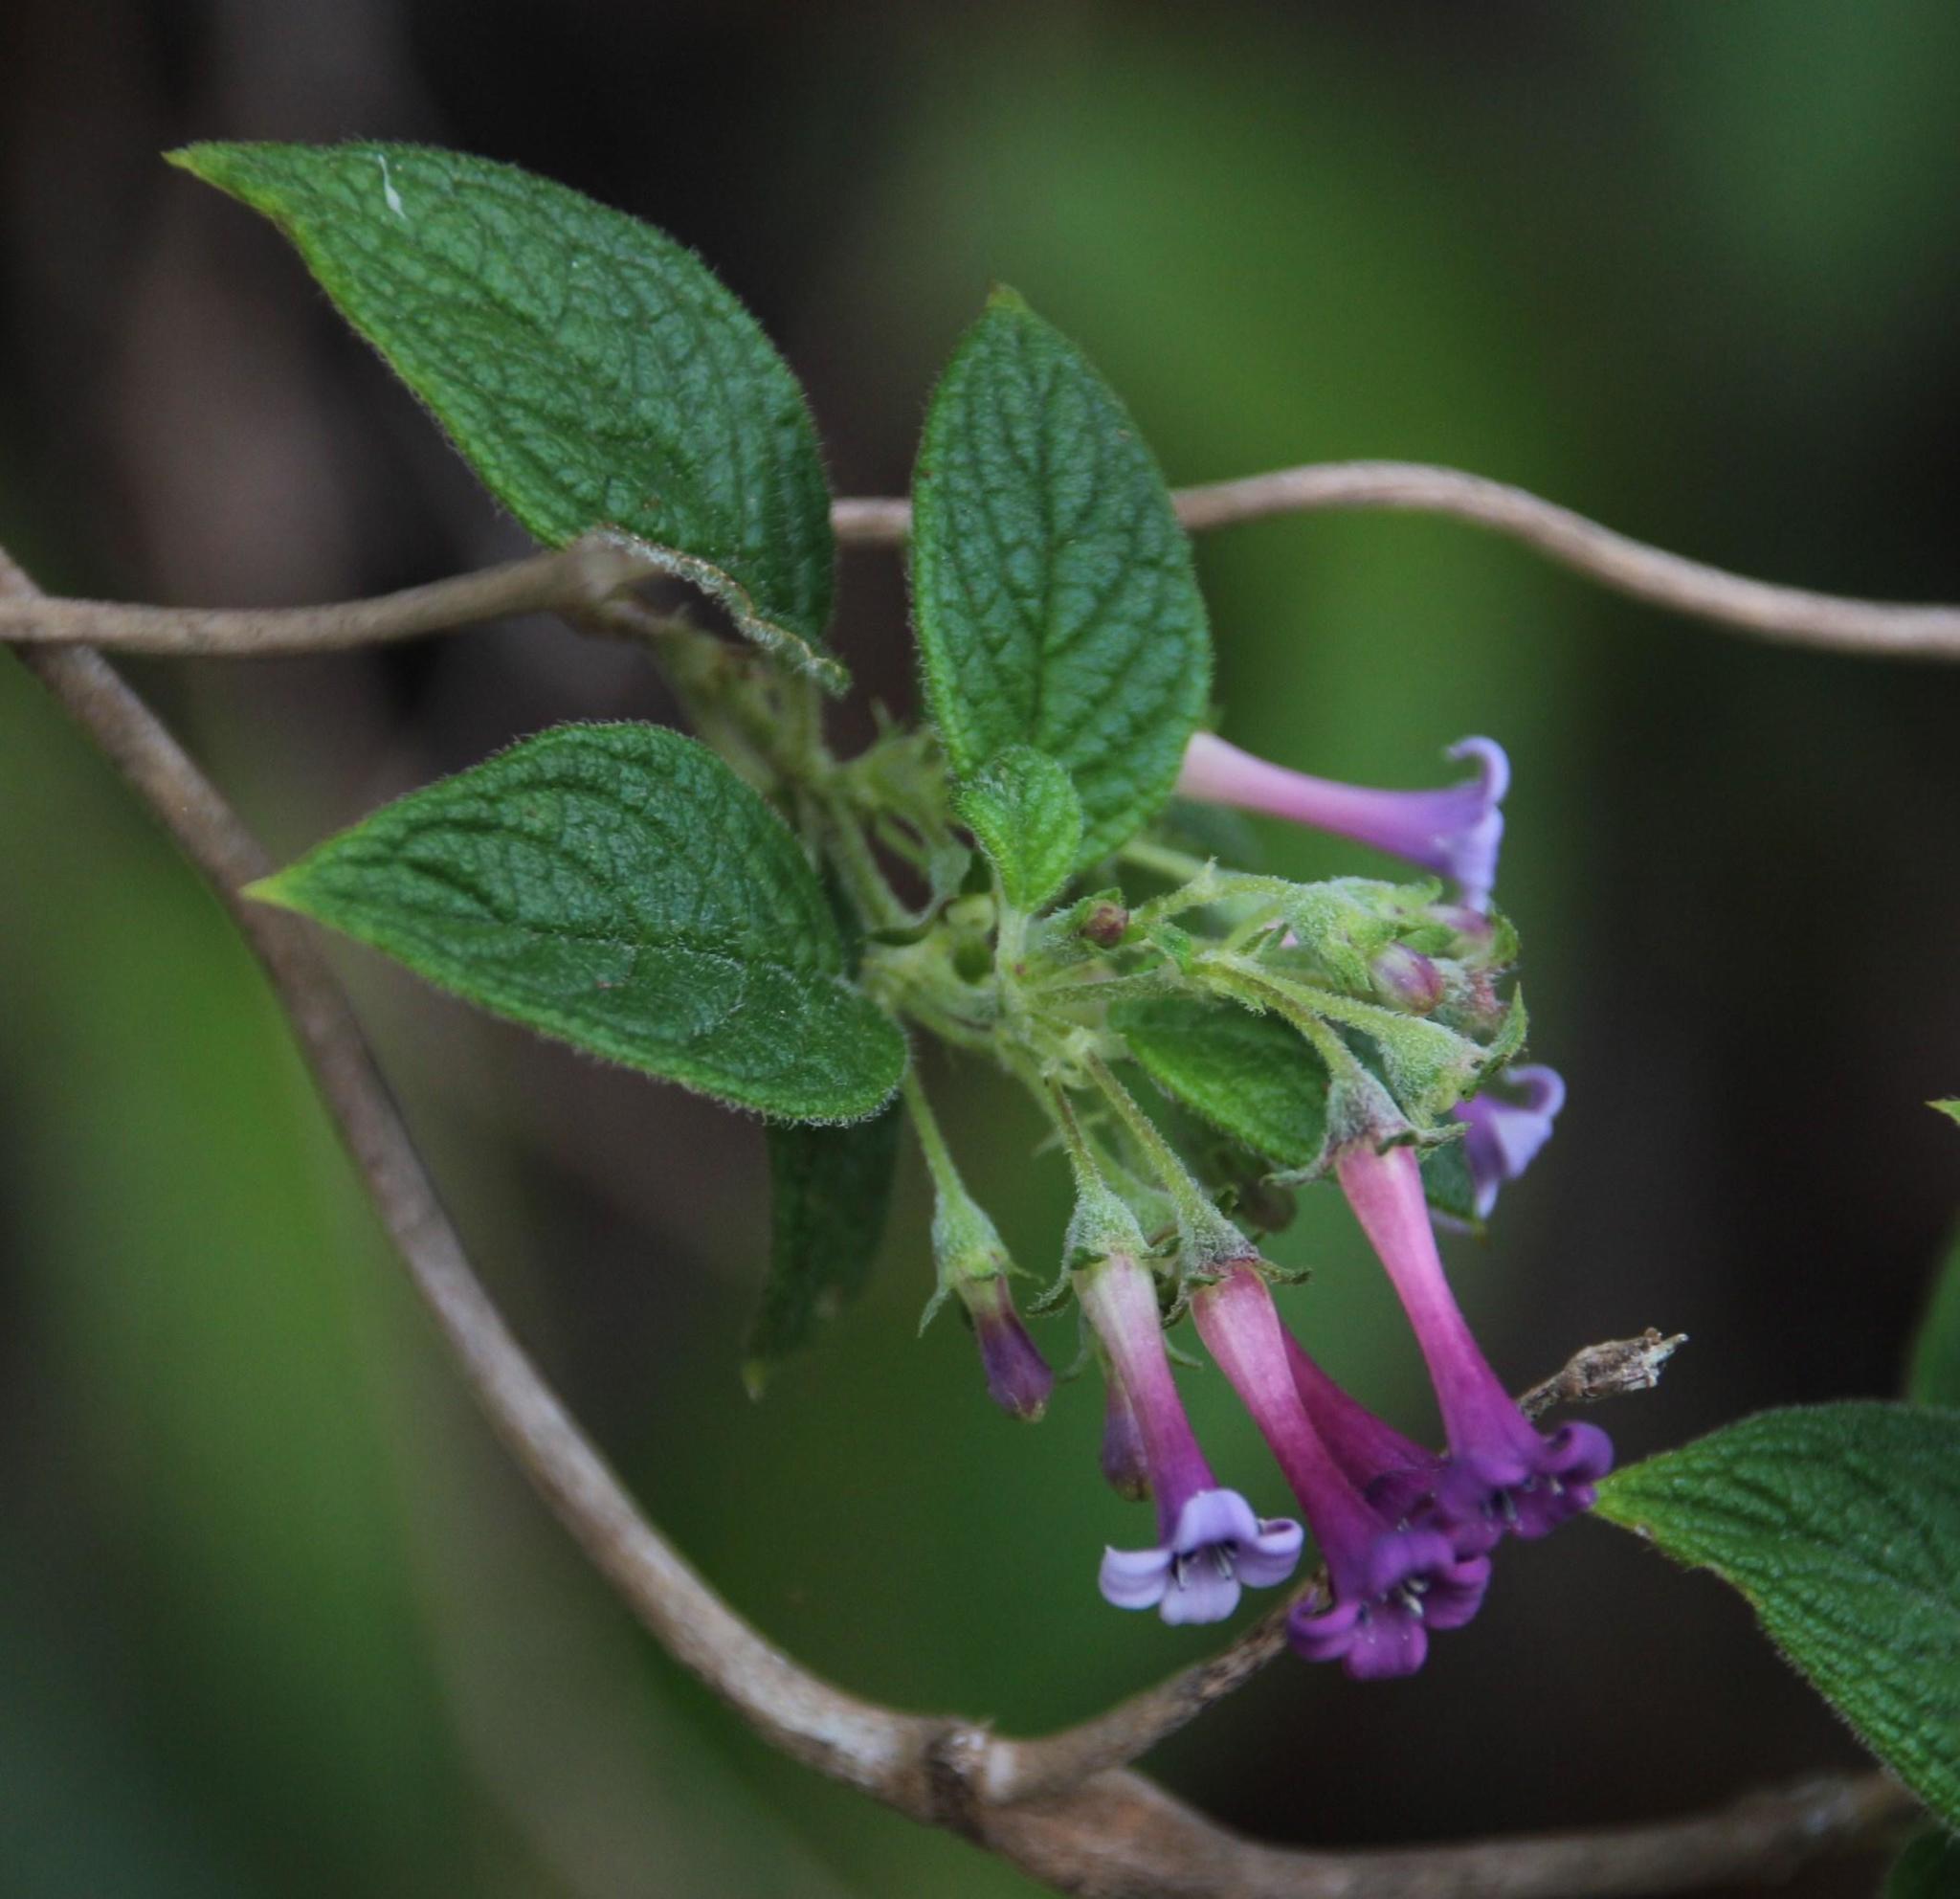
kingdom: Plantae
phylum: Tracheophyta
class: Magnoliopsida
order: Gentianales
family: Rubiaceae
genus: Manettia
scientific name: Manettia peruviana
